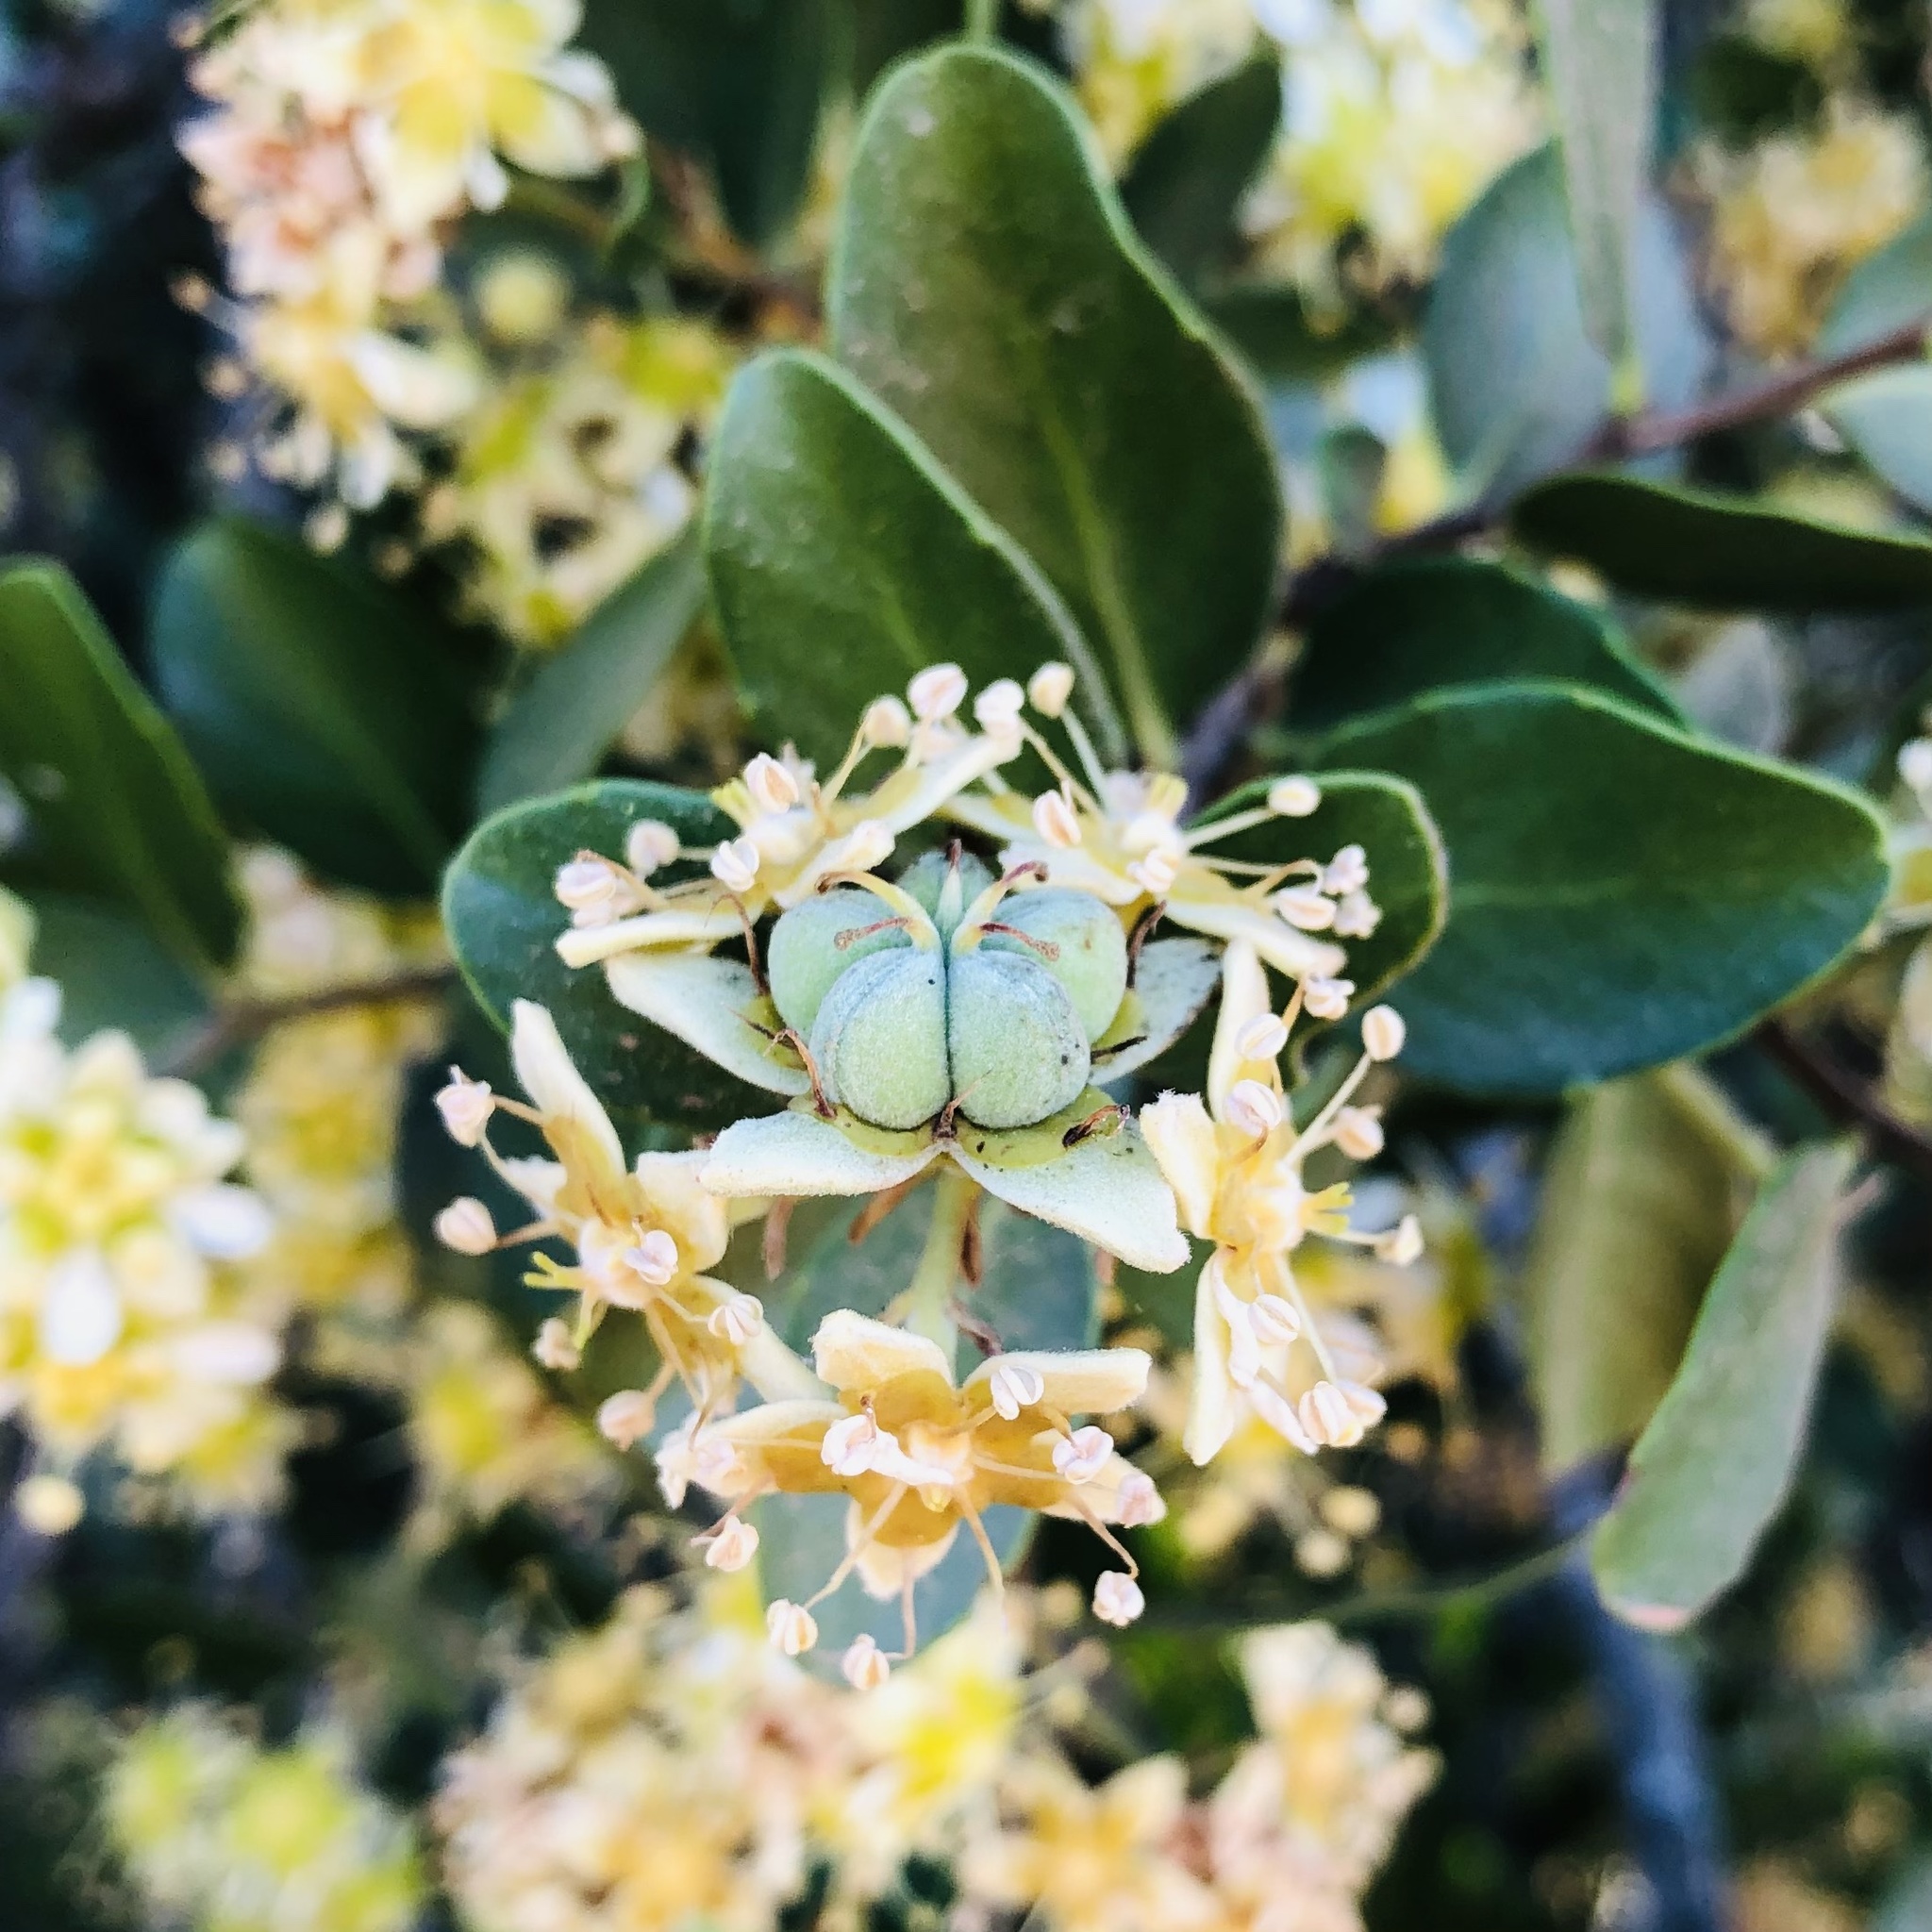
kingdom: Plantae
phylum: Tracheophyta
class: Magnoliopsida
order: Fabales
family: Quillajaceae
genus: Quillaja
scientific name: Quillaja saponaria
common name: Murillo's-bark
